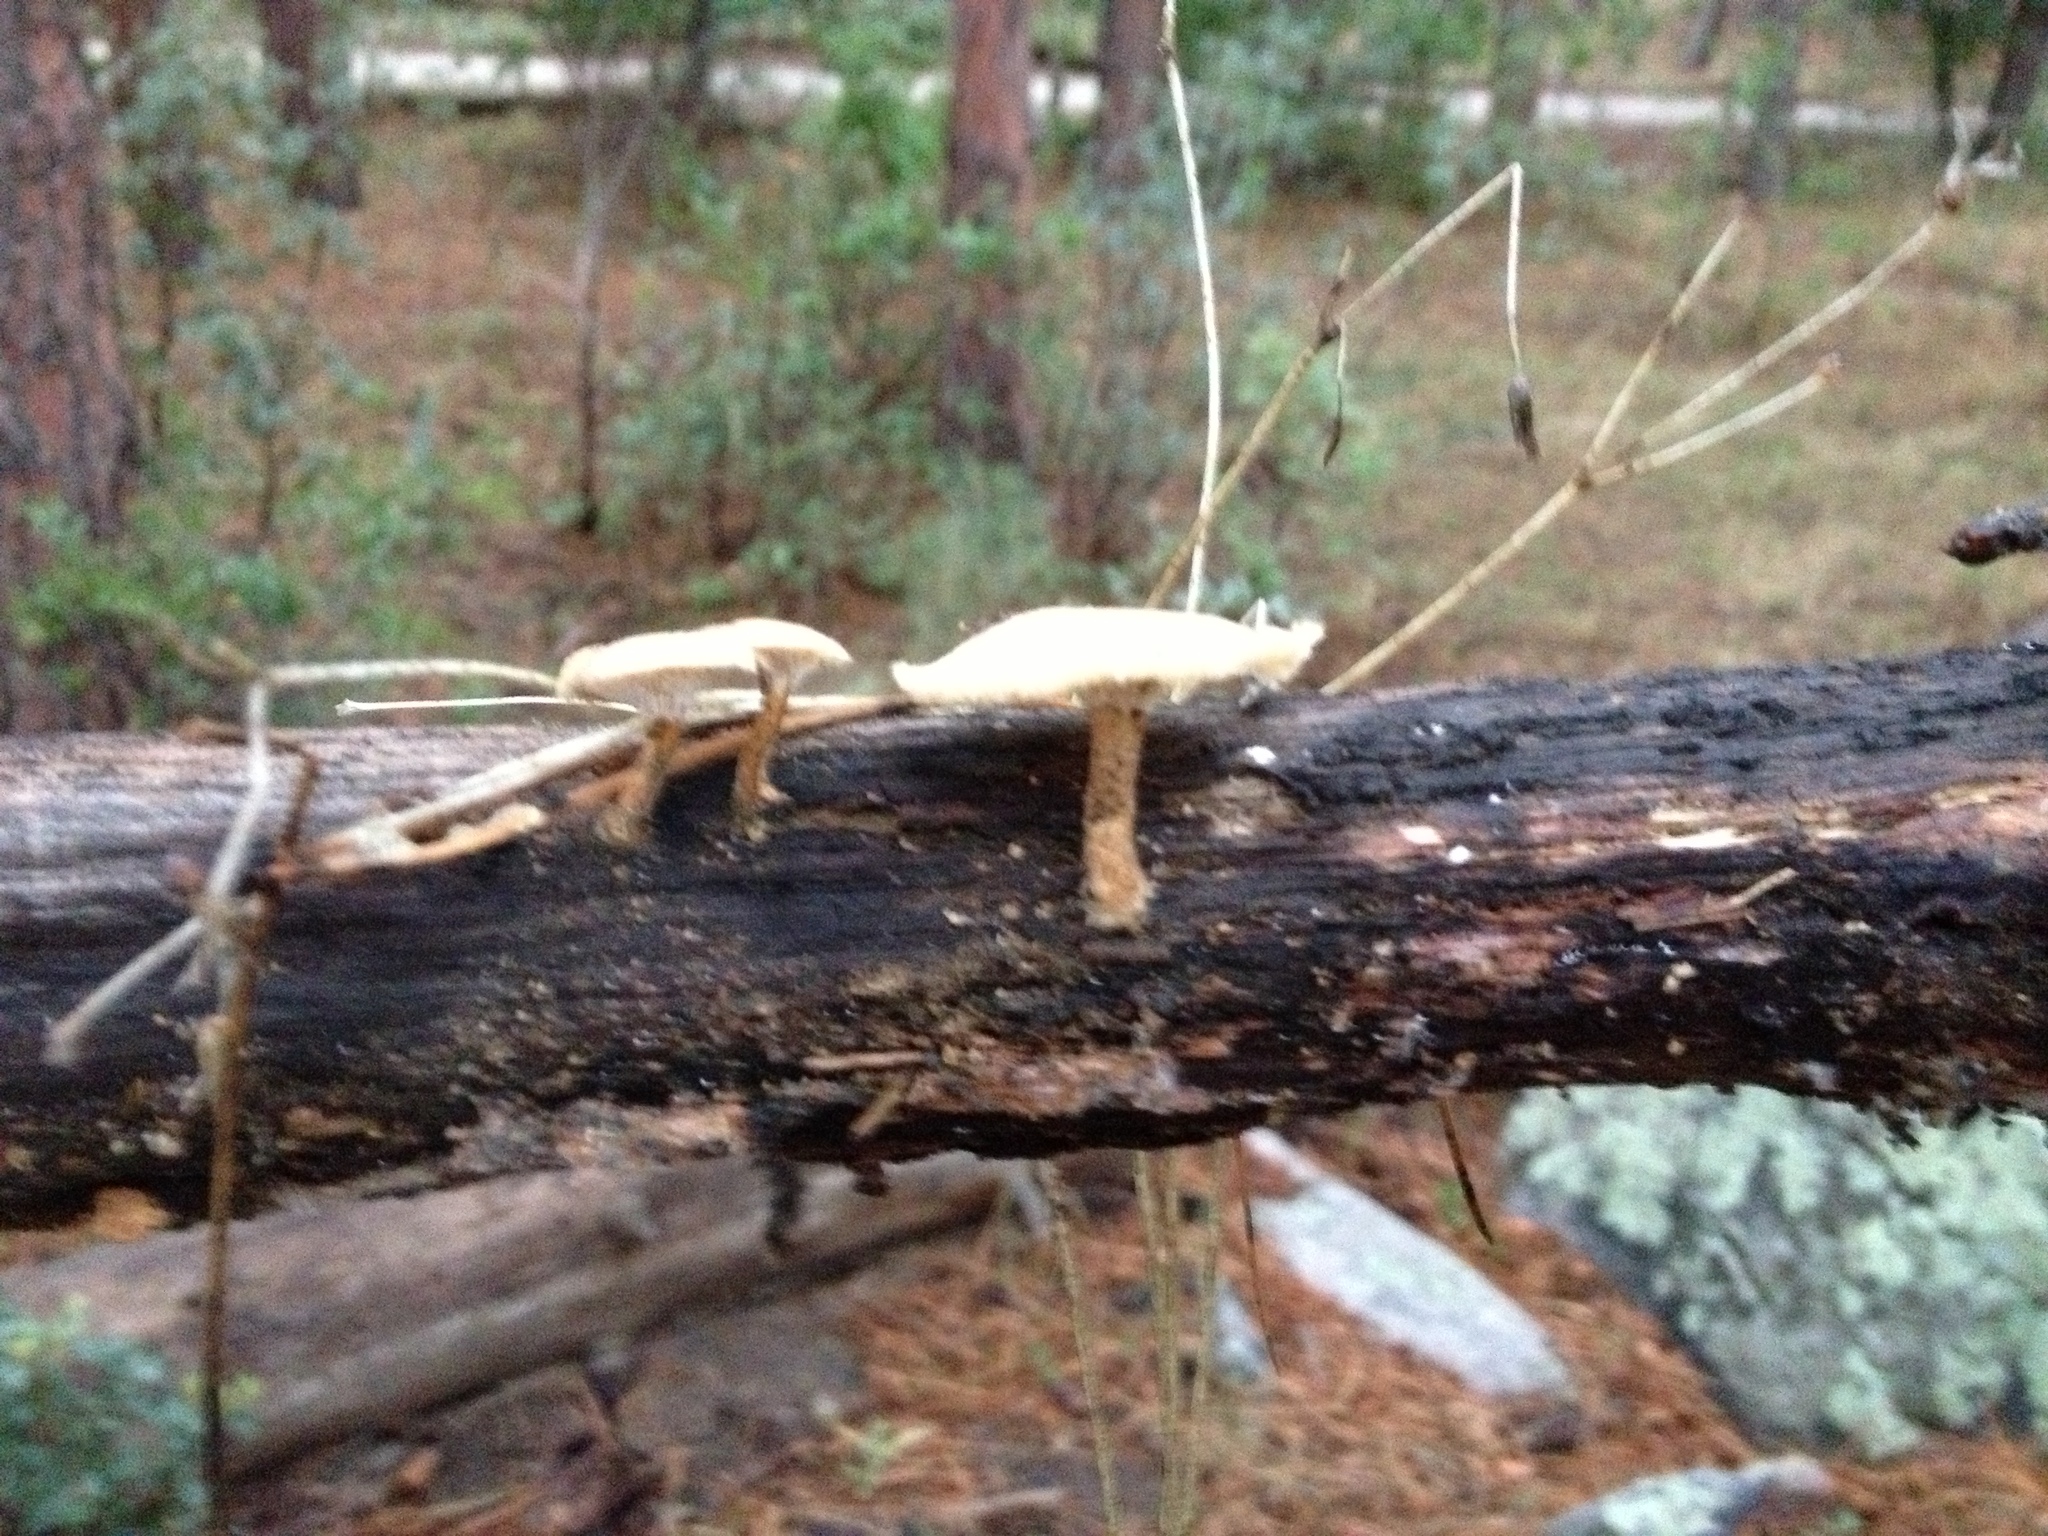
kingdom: Fungi
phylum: Basidiomycota
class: Agaricomycetes
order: Polyporales
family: Polyporaceae
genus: Lentinus
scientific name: Lentinus arcularius
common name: Spring polypore
